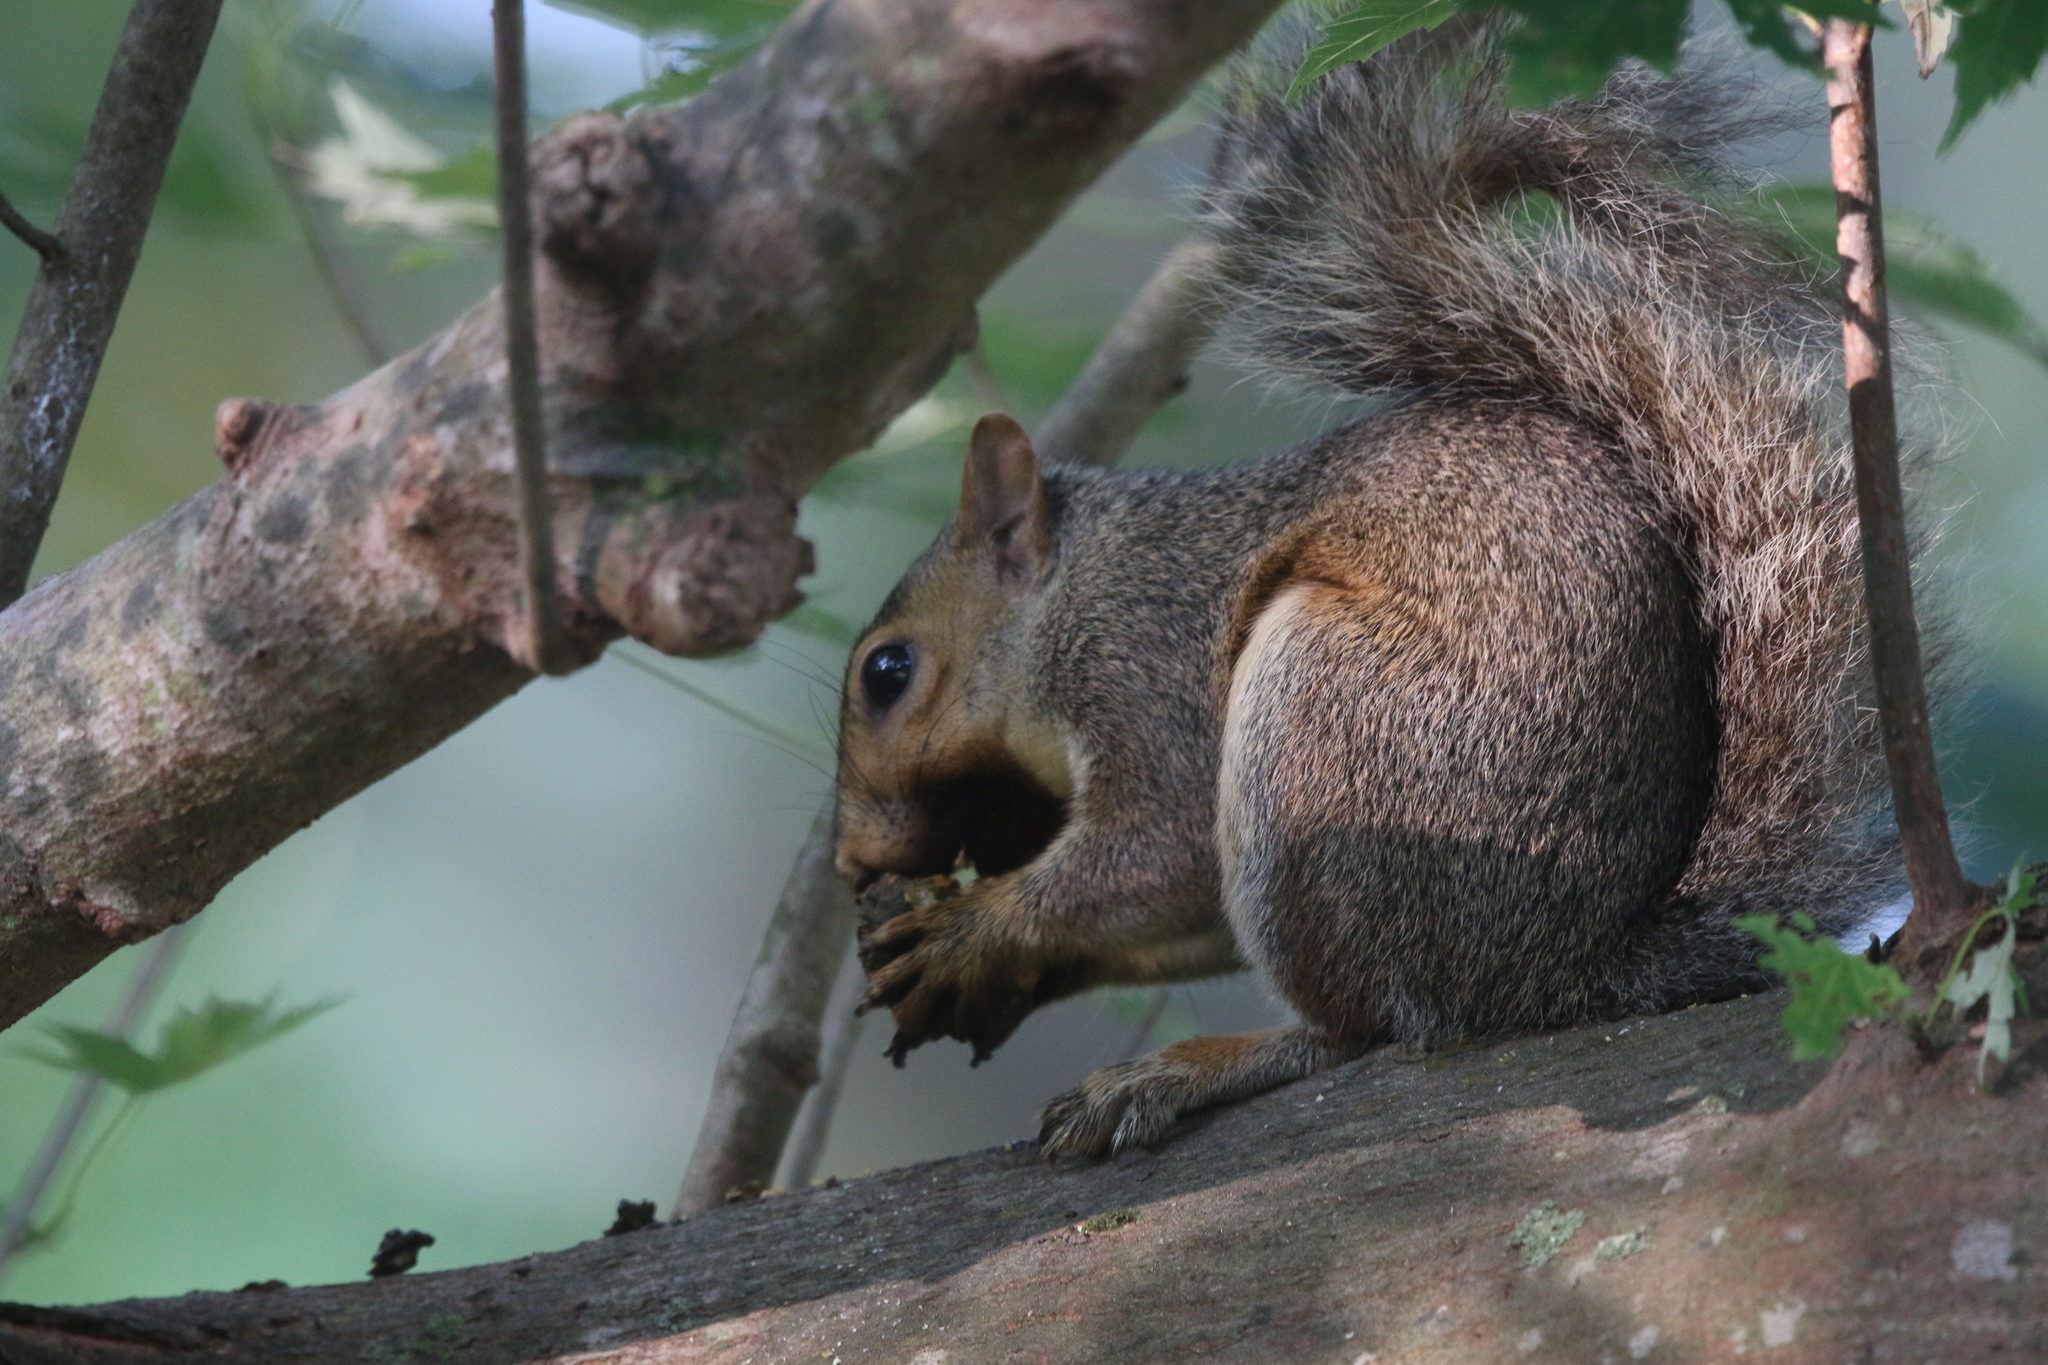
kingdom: Animalia
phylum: Chordata
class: Mammalia
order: Rodentia
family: Sciuridae
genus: Sciurus
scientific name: Sciurus carolinensis
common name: Eastern gray squirrel
